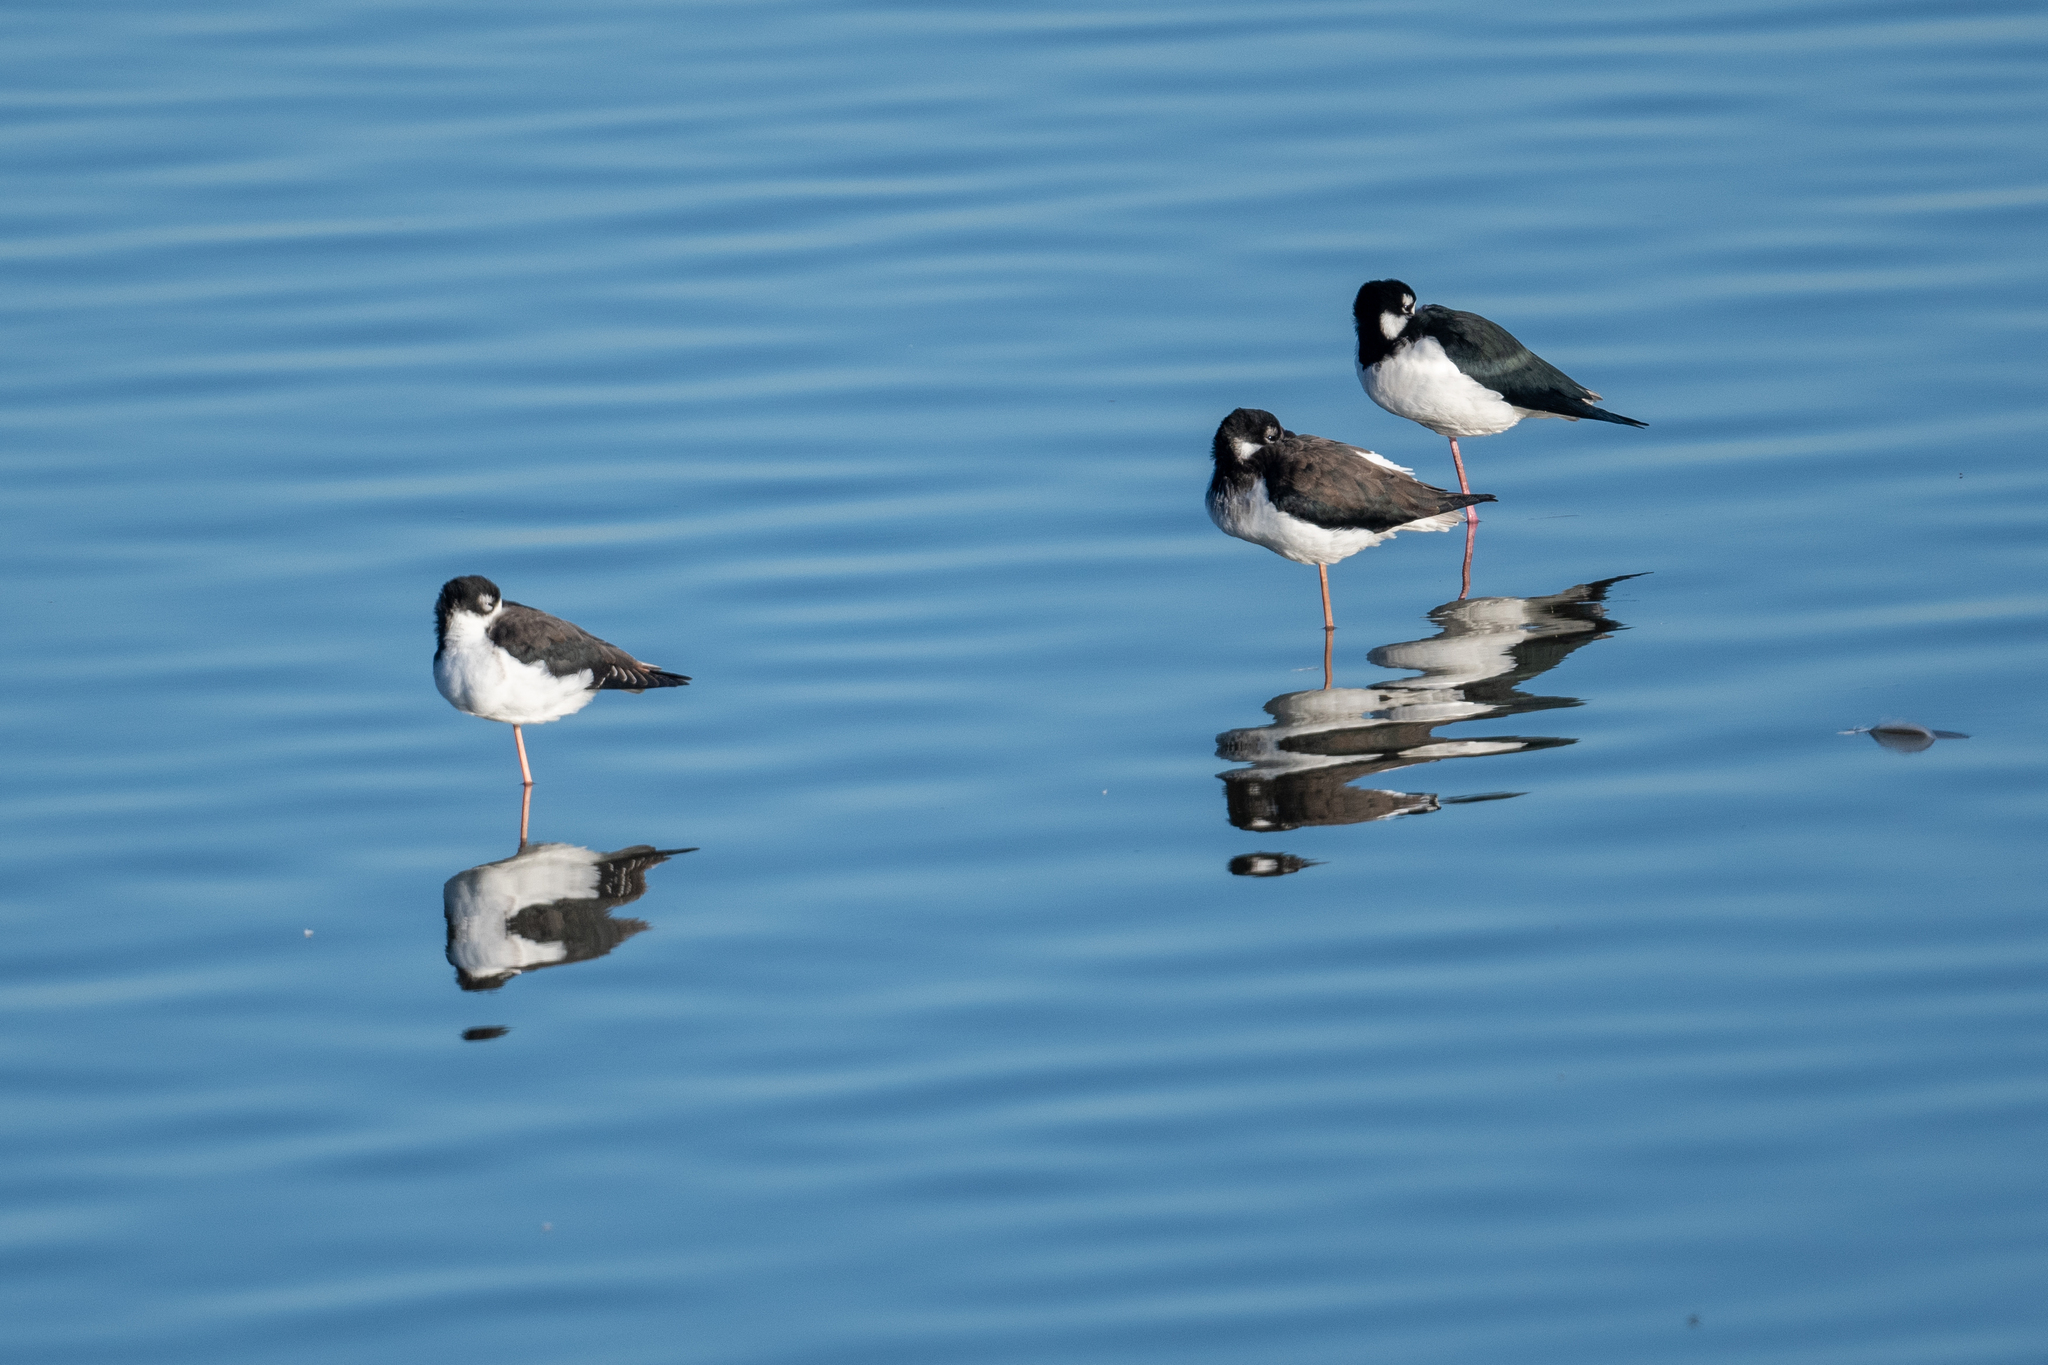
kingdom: Animalia
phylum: Chordata
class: Aves
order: Charadriiformes
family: Recurvirostridae
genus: Himantopus
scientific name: Himantopus mexicanus
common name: Black-necked stilt
